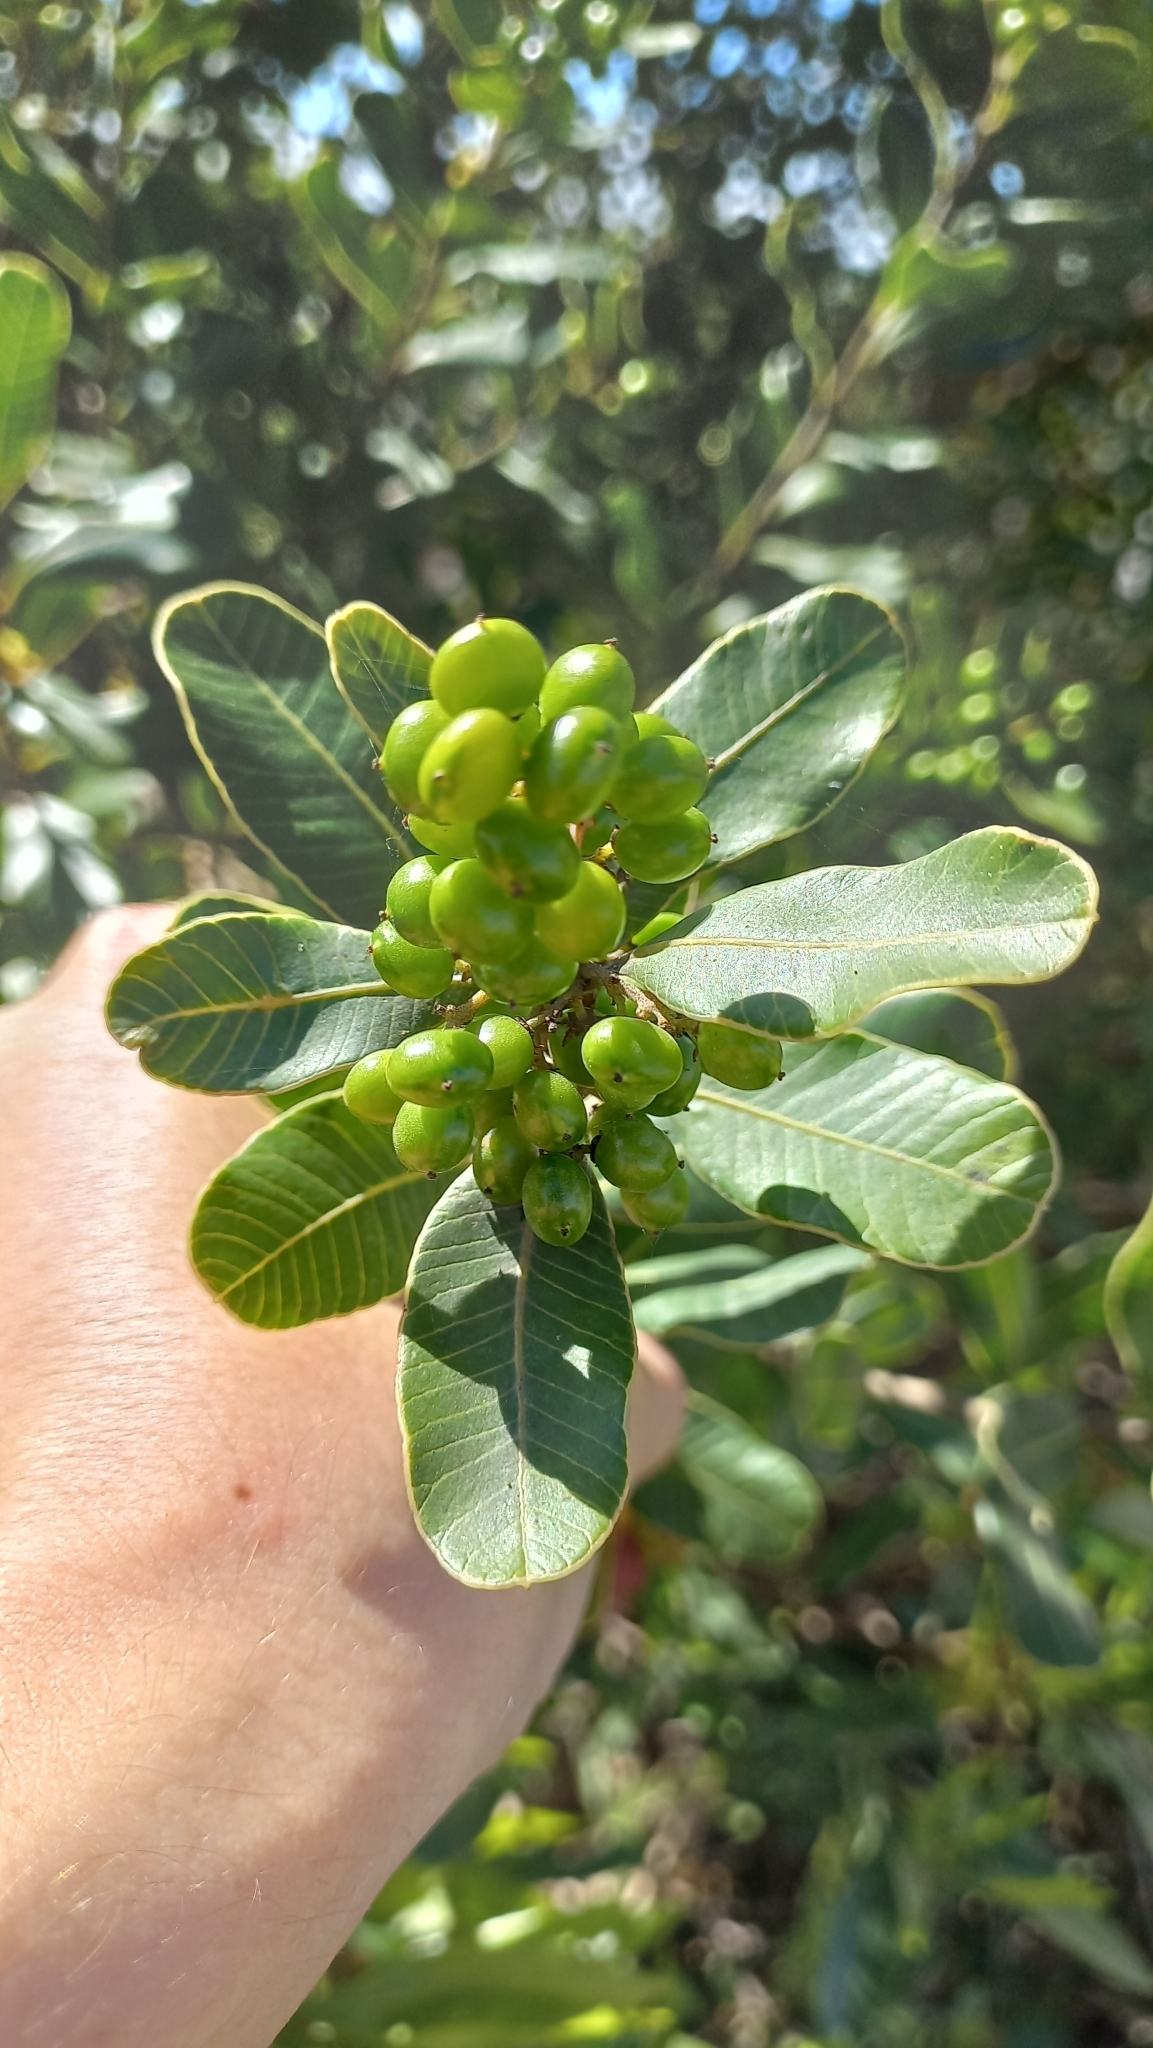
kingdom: Plantae
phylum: Tracheophyta
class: Magnoliopsida
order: Sapindales
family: Anacardiaceae
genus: Lithraea
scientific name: Lithraea brasiliensis
